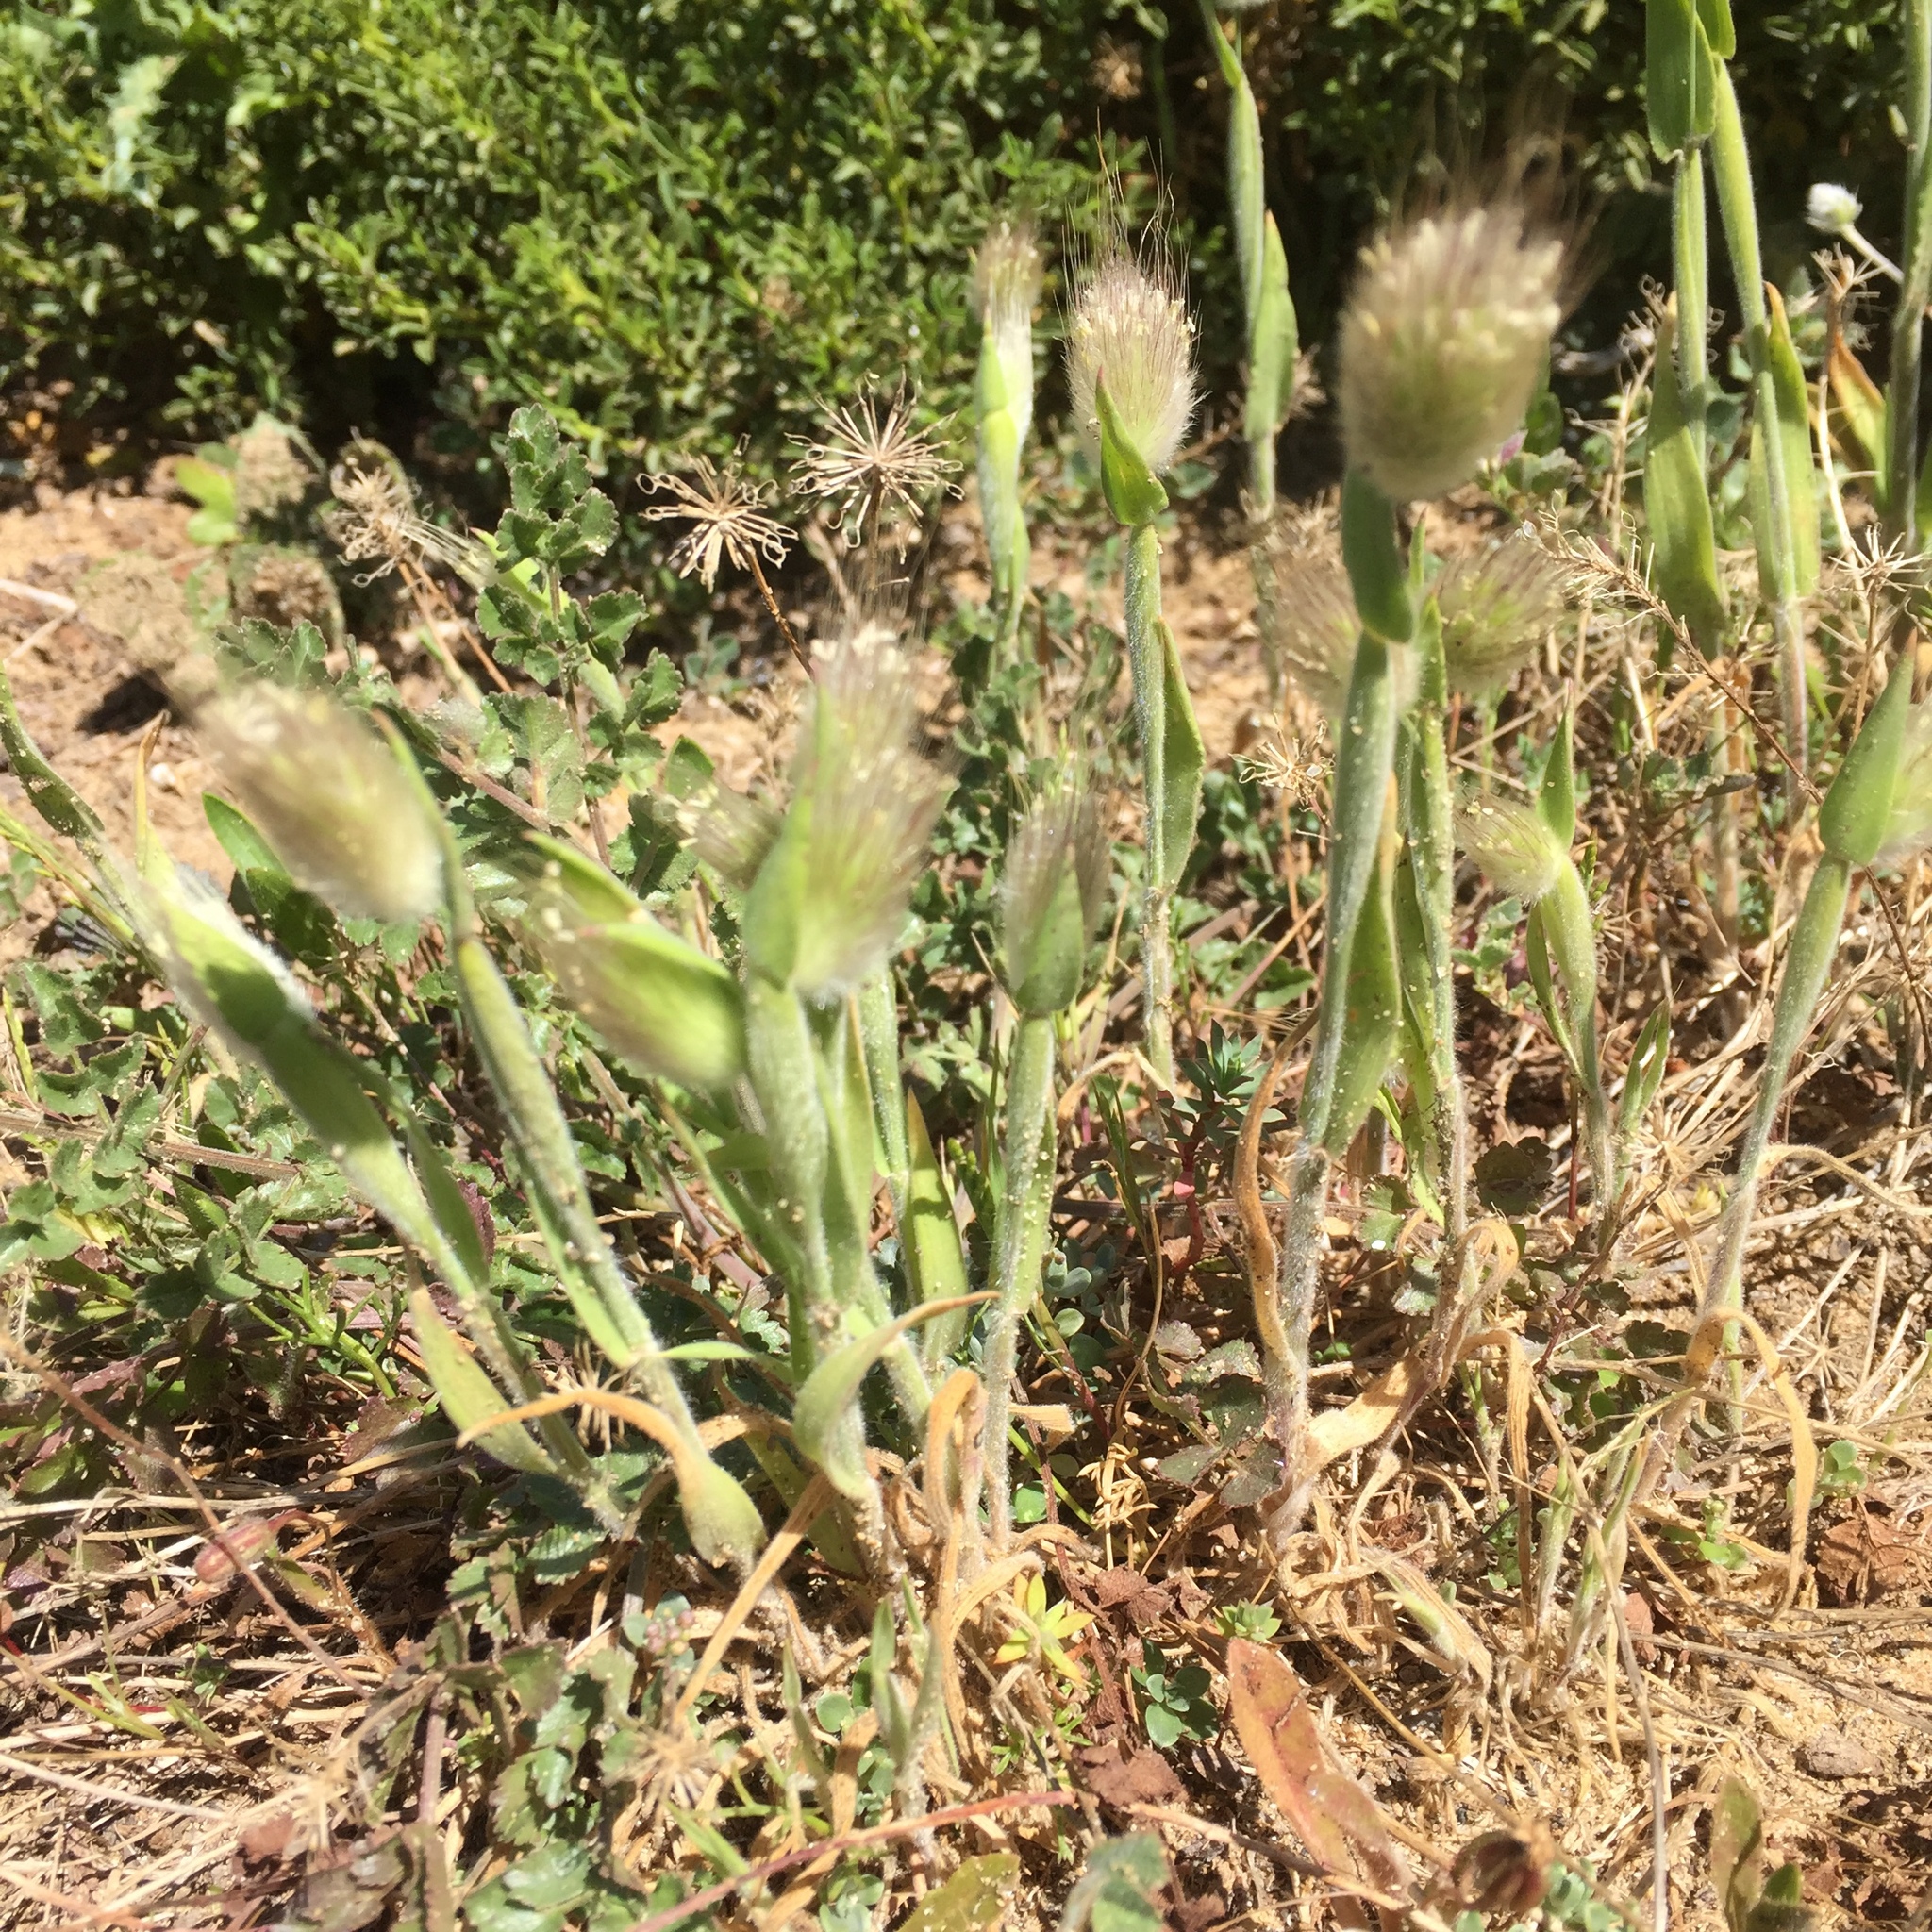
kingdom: Plantae
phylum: Tracheophyta
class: Liliopsida
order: Poales
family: Poaceae
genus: Lagurus
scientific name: Lagurus ovatus
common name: Hare's-tail
